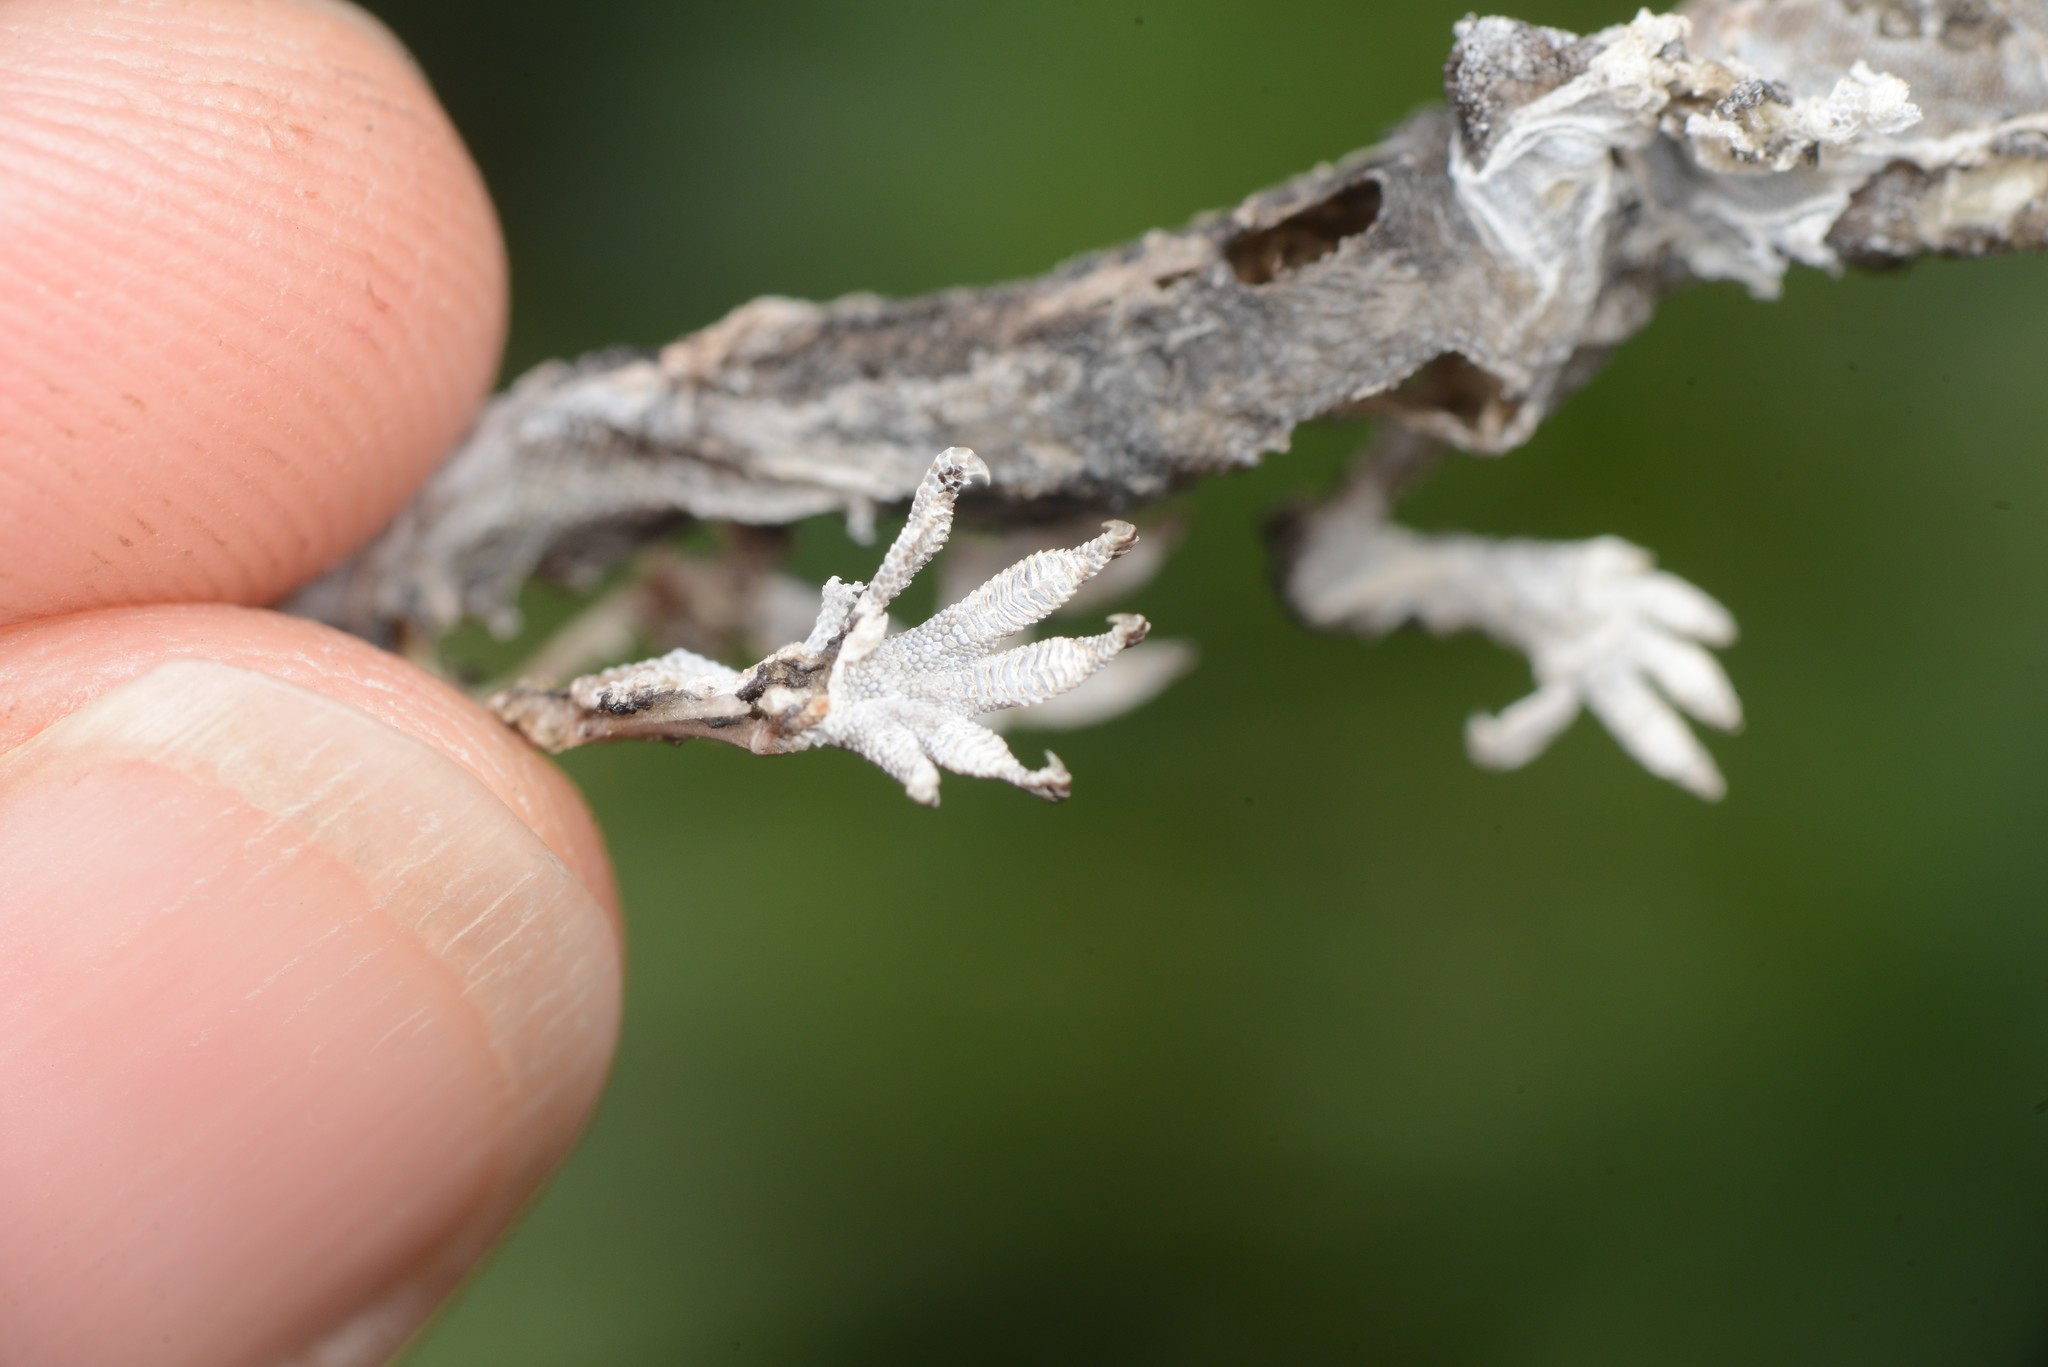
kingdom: Animalia
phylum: Chordata
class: Squamata
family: Diplodactylidae
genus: Woodworthia
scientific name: Woodworthia brunnea
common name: Canterbury gecko
